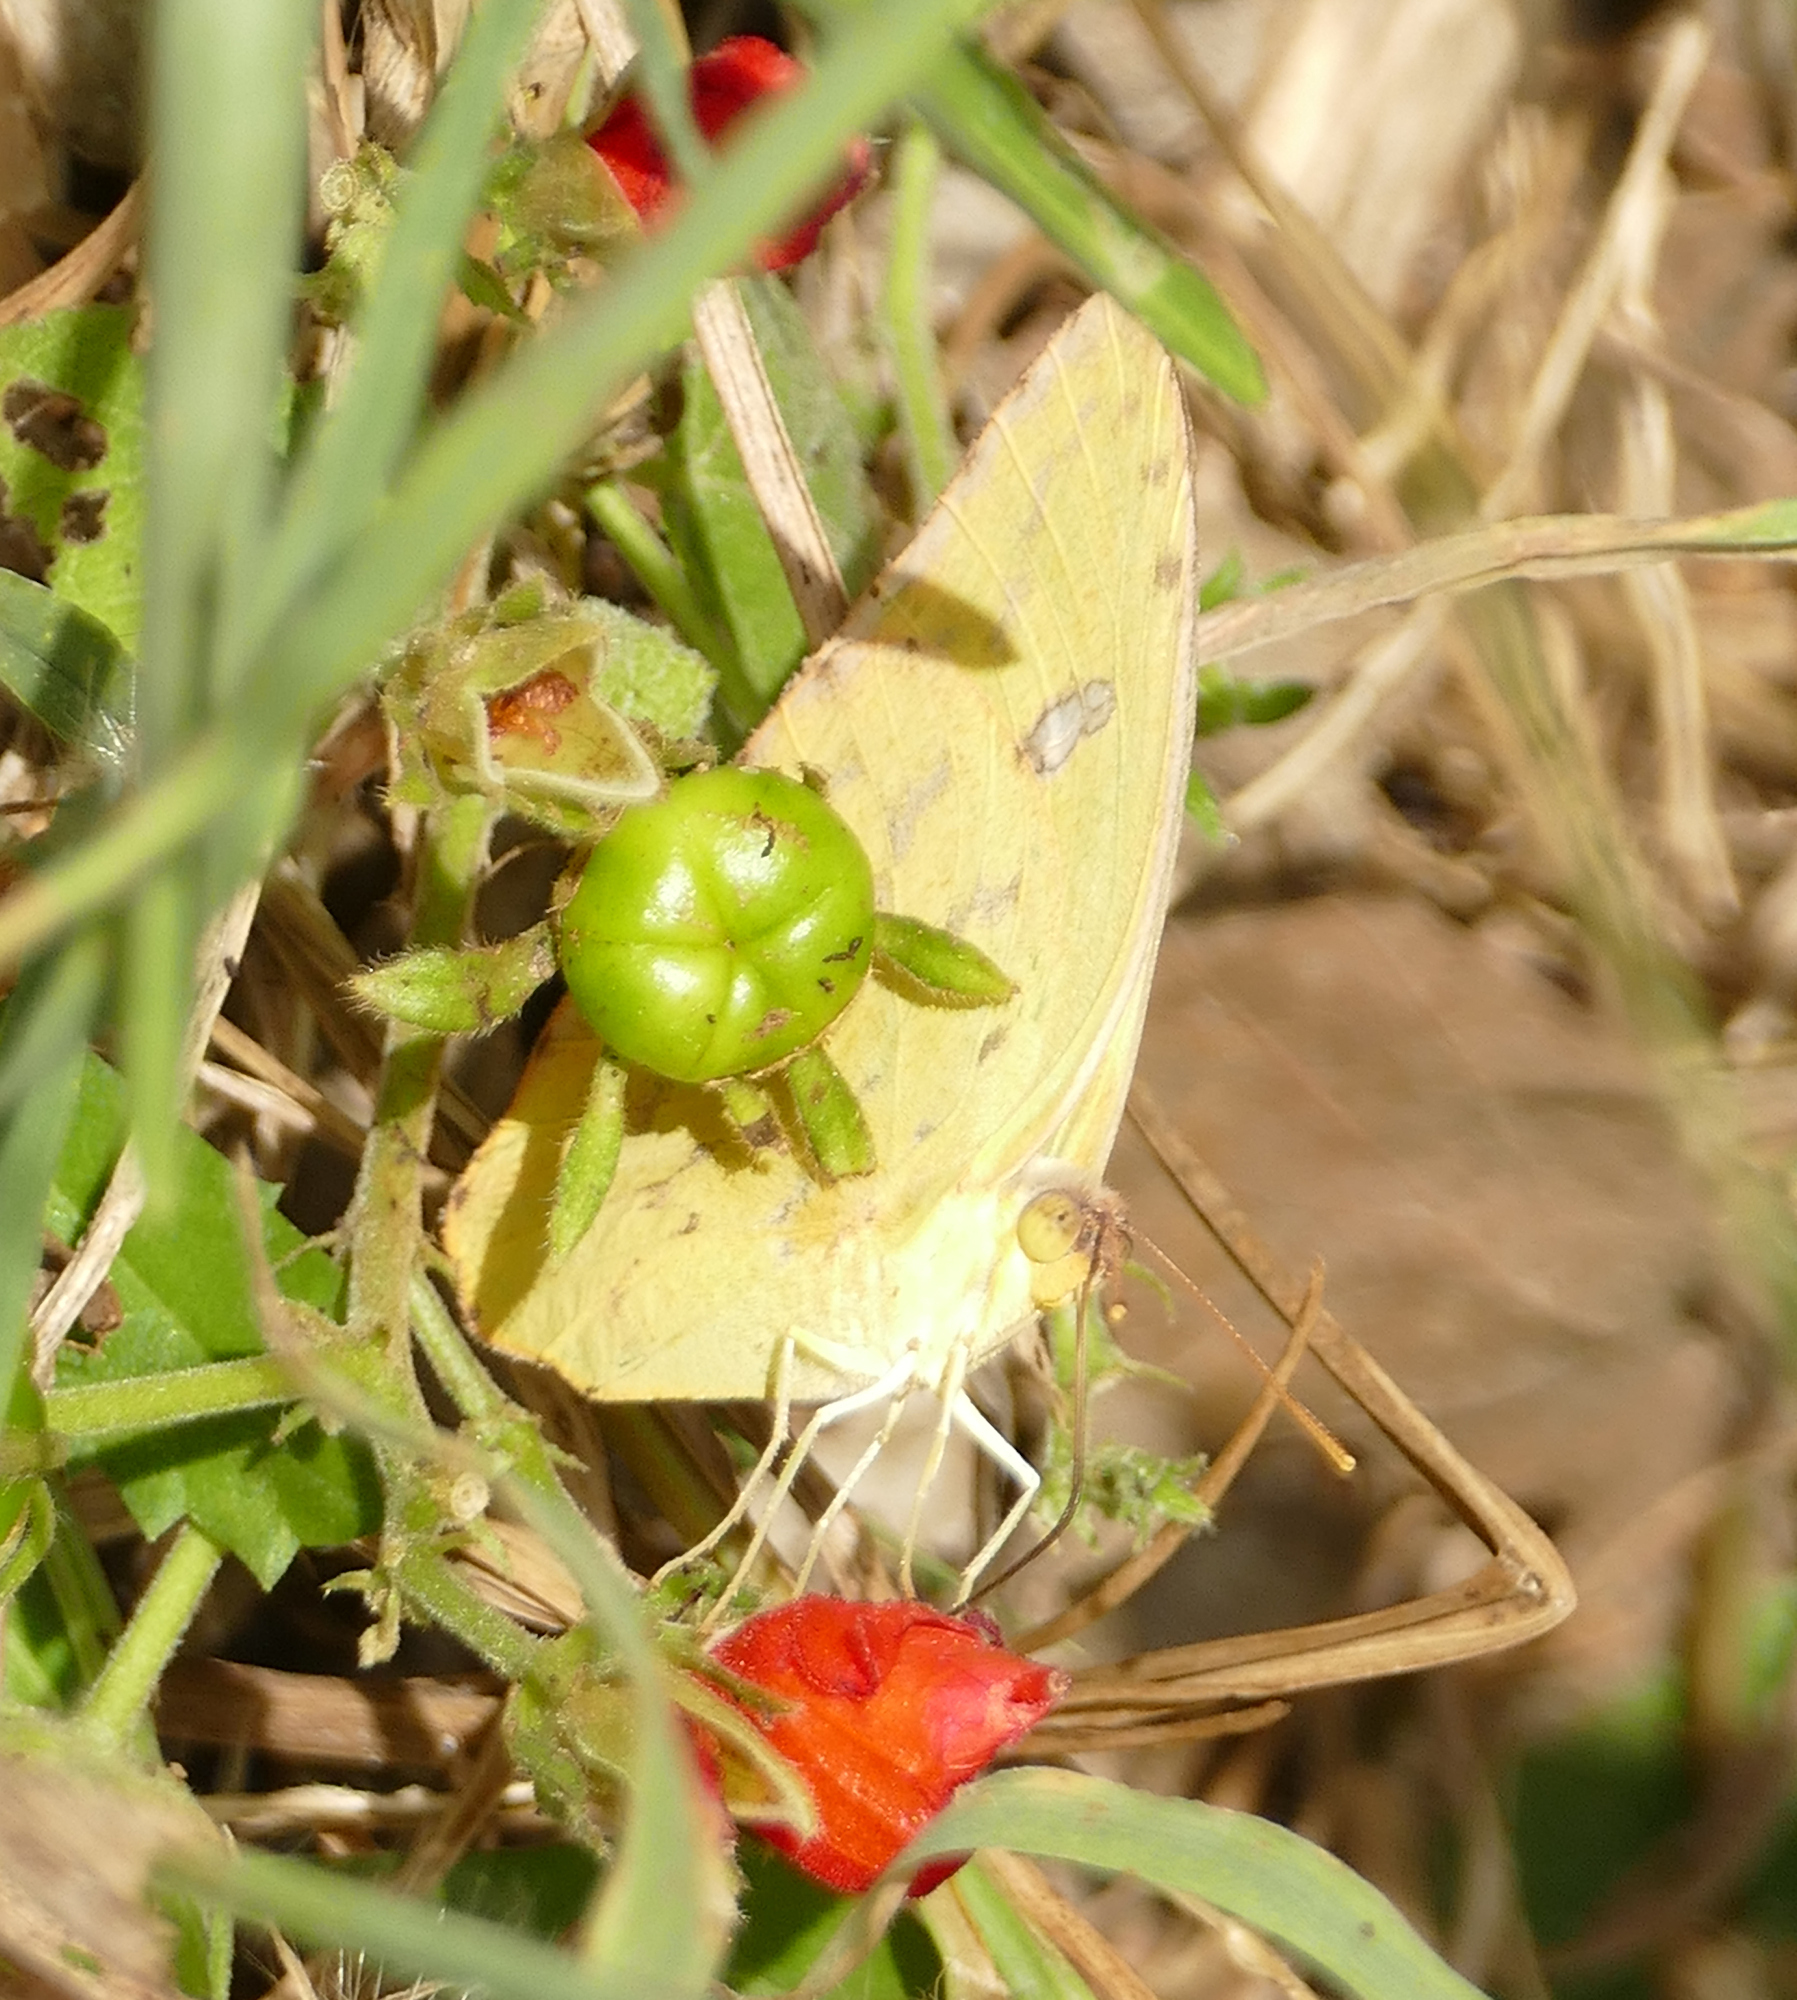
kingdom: Animalia
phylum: Arthropoda
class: Insecta
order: Lepidoptera
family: Pieridae
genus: Phoebis
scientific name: Phoebis sennae
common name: Cloudless sulphur
